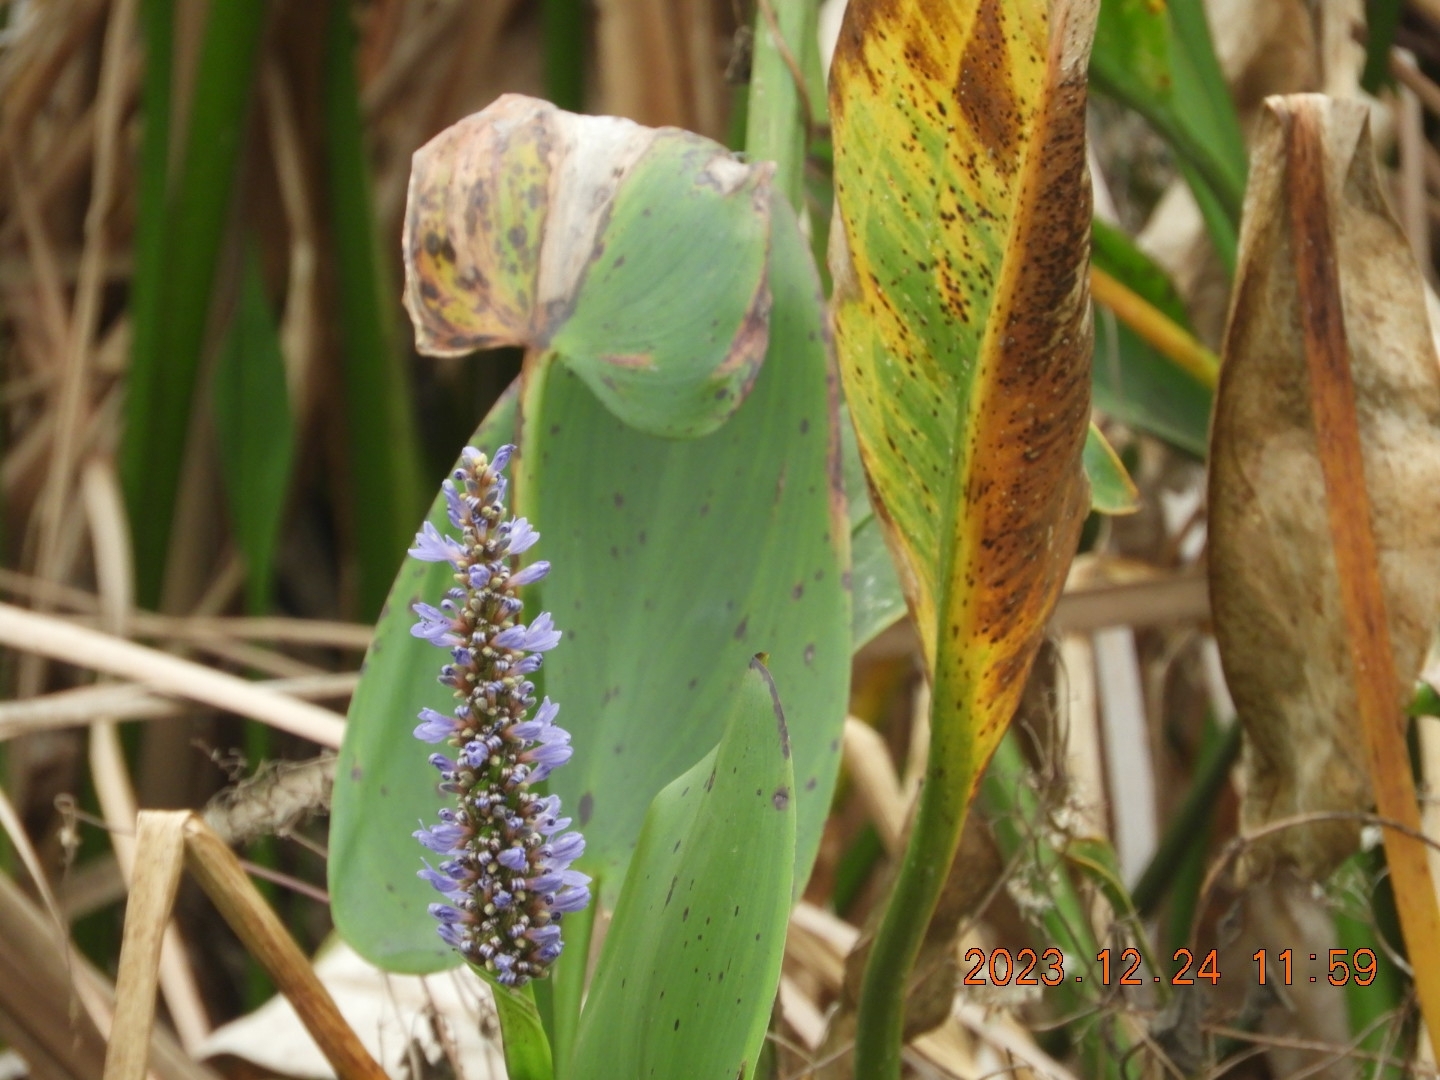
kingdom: Plantae
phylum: Tracheophyta
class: Liliopsida
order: Commelinales
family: Pontederiaceae
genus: Pontederia
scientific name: Pontederia cordata
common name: Pickerelweed
